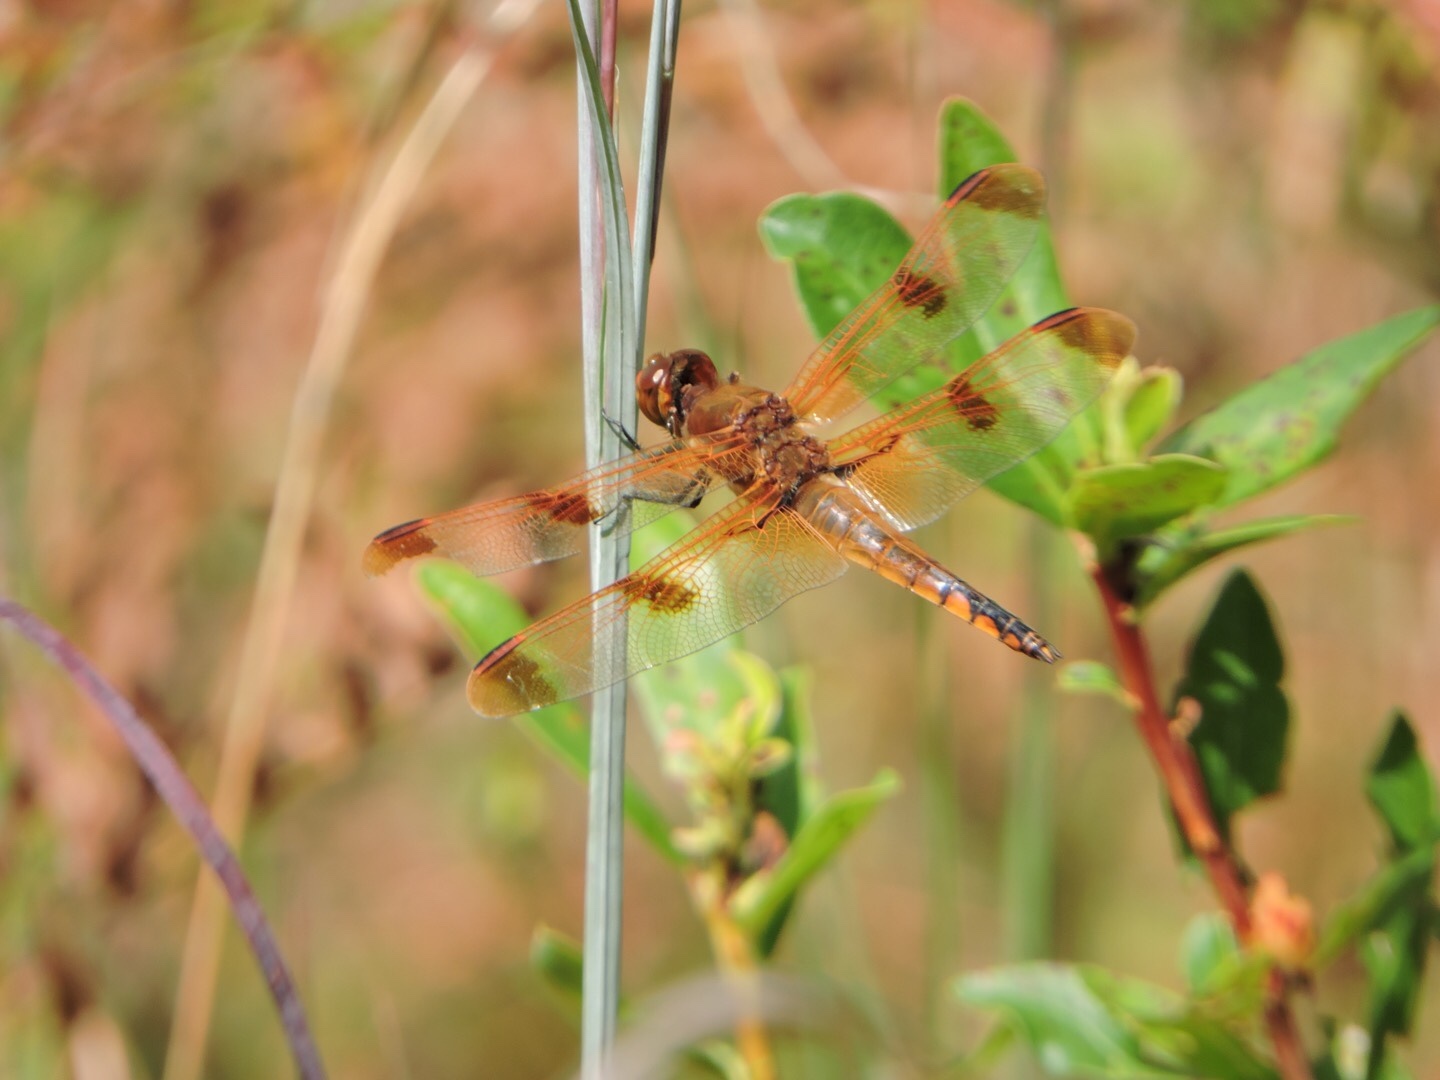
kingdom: Animalia
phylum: Arthropoda
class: Insecta
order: Odonata
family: Libellulidae
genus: Libellula
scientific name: Libellula semifasciata
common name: Painted skimmer
